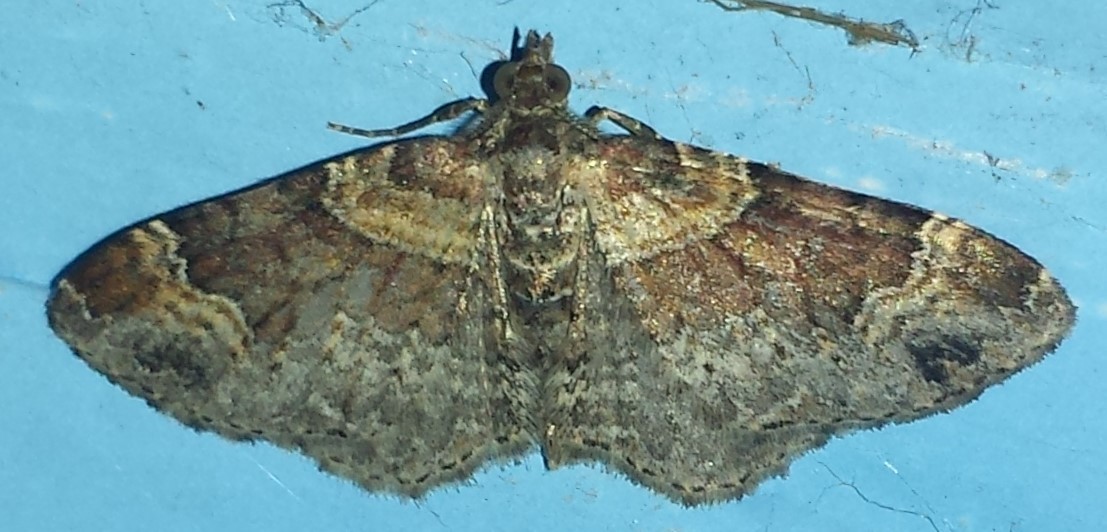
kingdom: Animalia
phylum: Arthropoda
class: Insecta
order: Lepidoptera
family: Geometridae
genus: Xanthorhoe
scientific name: Xanthorhoe ferrugata
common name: Dark-barred twin-spot carpet
